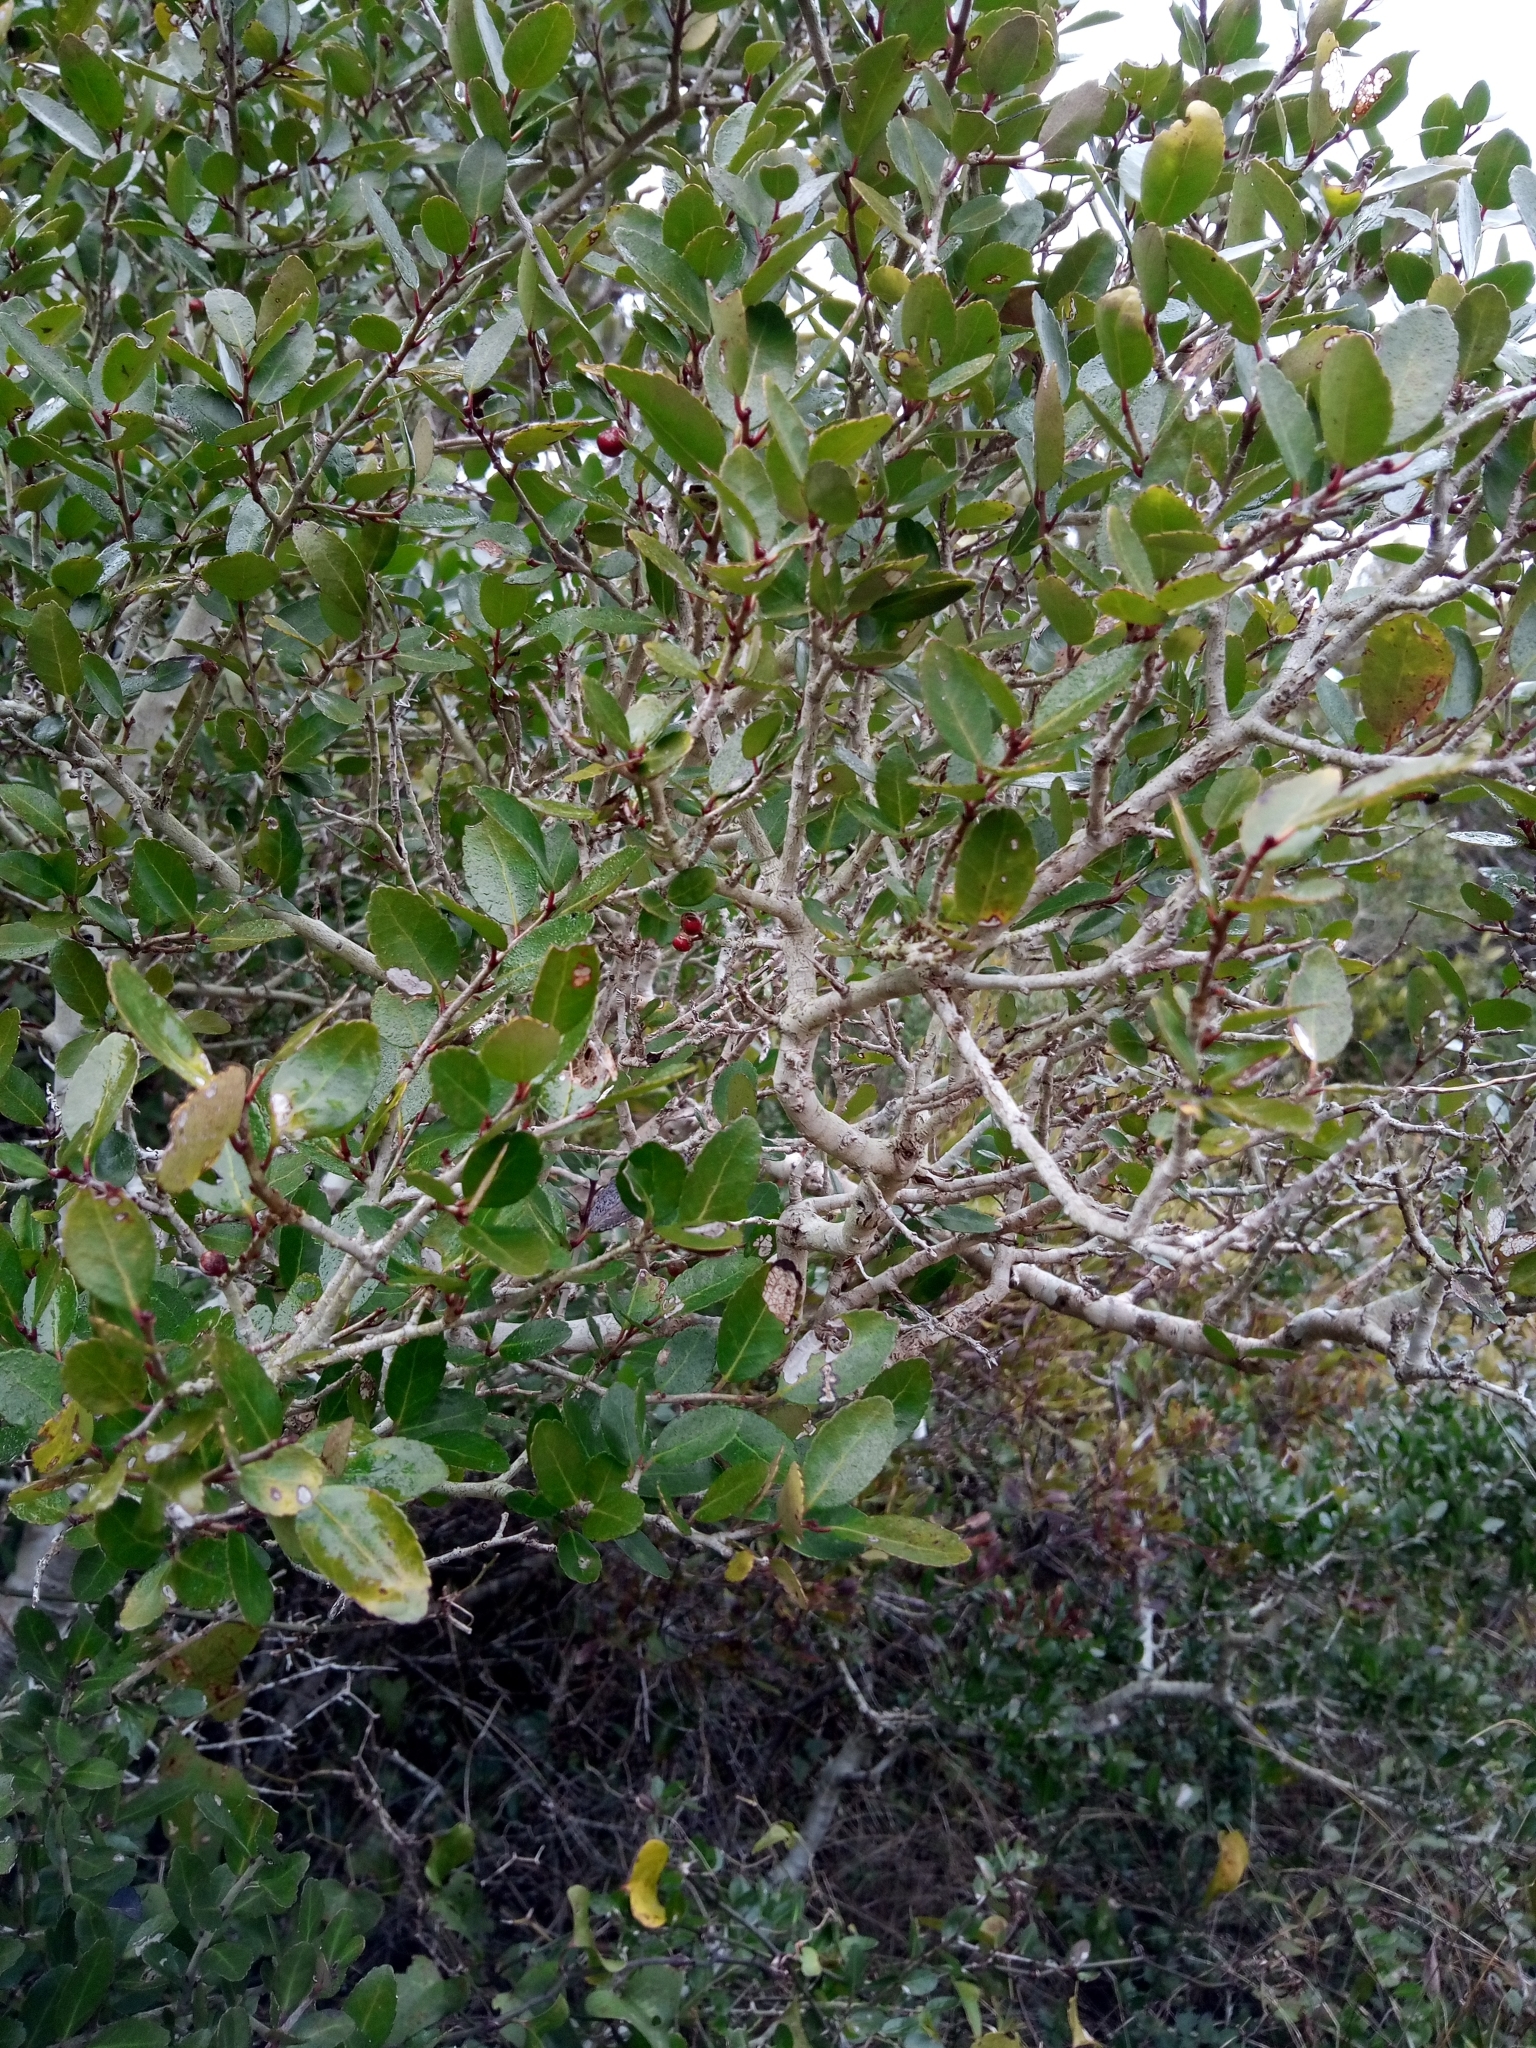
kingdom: Plantae
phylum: Tracheophyta
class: Magnoliopsida
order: Aquifoliales
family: Aquifoliaceae
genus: Ilex
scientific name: Ilex vomitoria
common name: Yaupon holly
